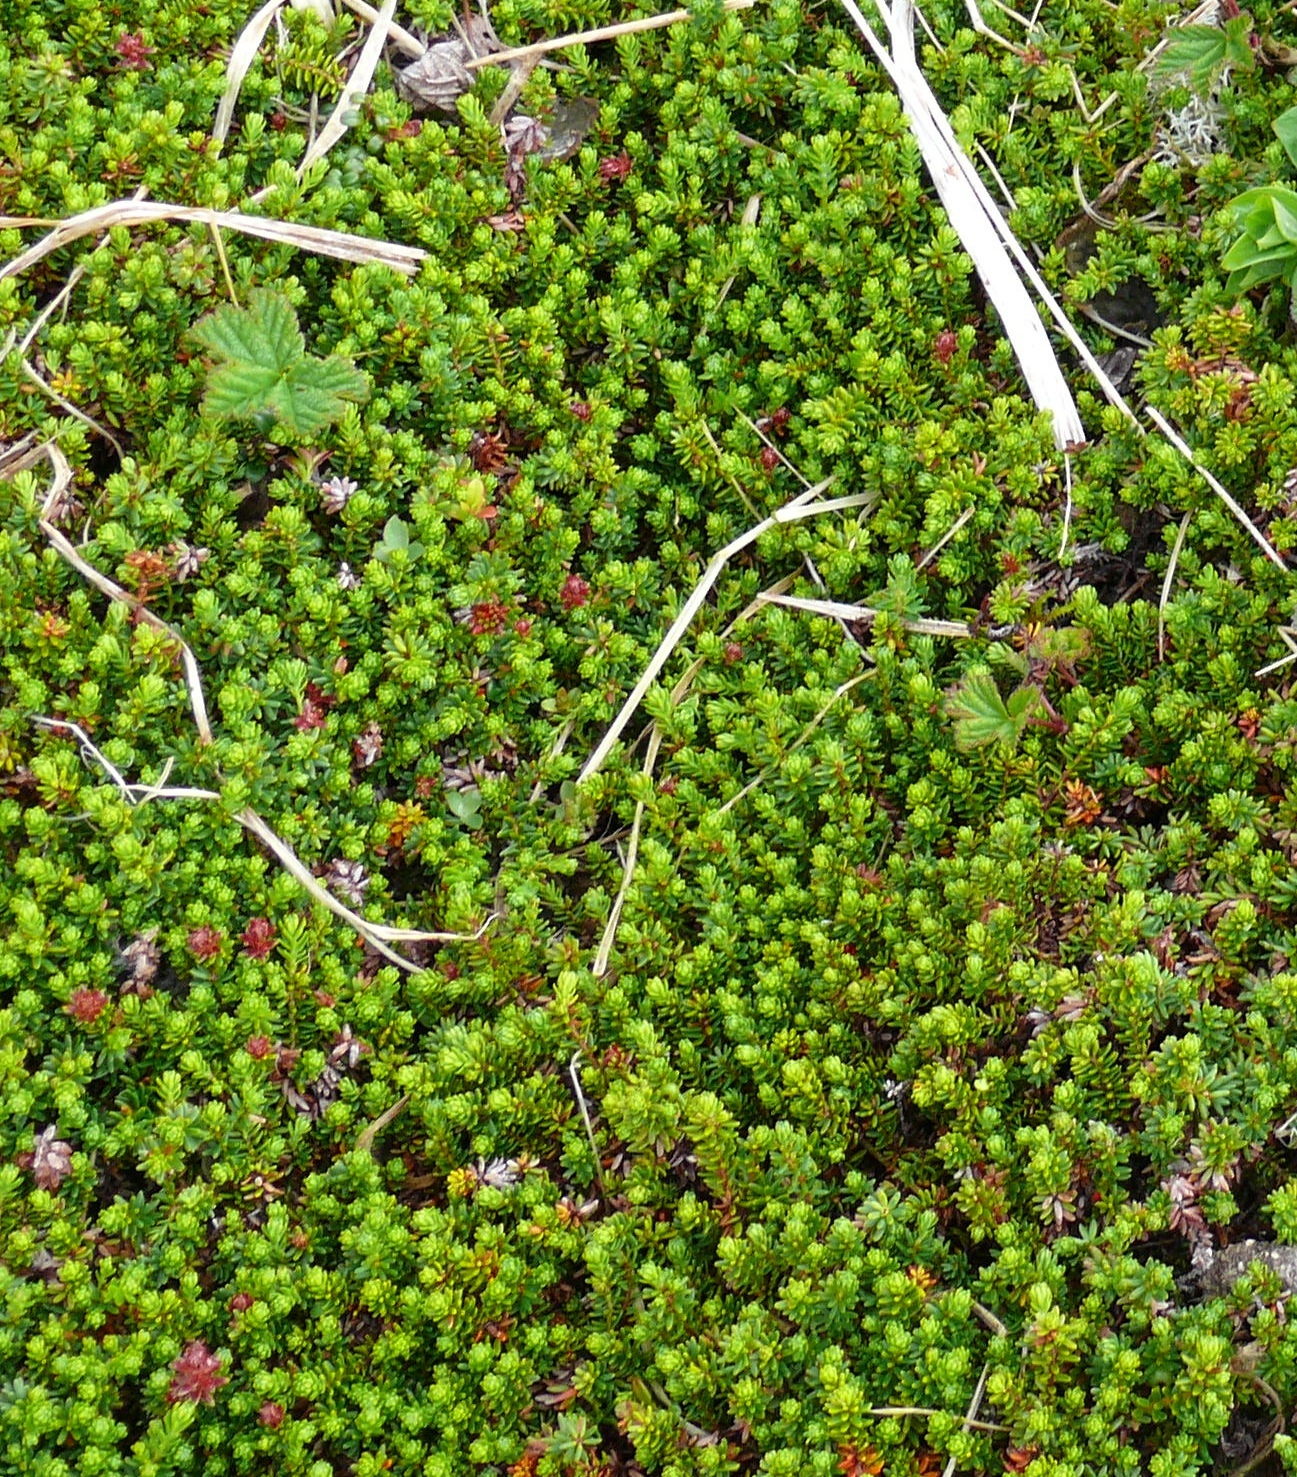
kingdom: Plantae
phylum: Tracheophyta
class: Magnoliopsida
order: Ericales
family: Ericaceae
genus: Empetrum
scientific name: Empetrum nigrum
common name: Black crowberry
